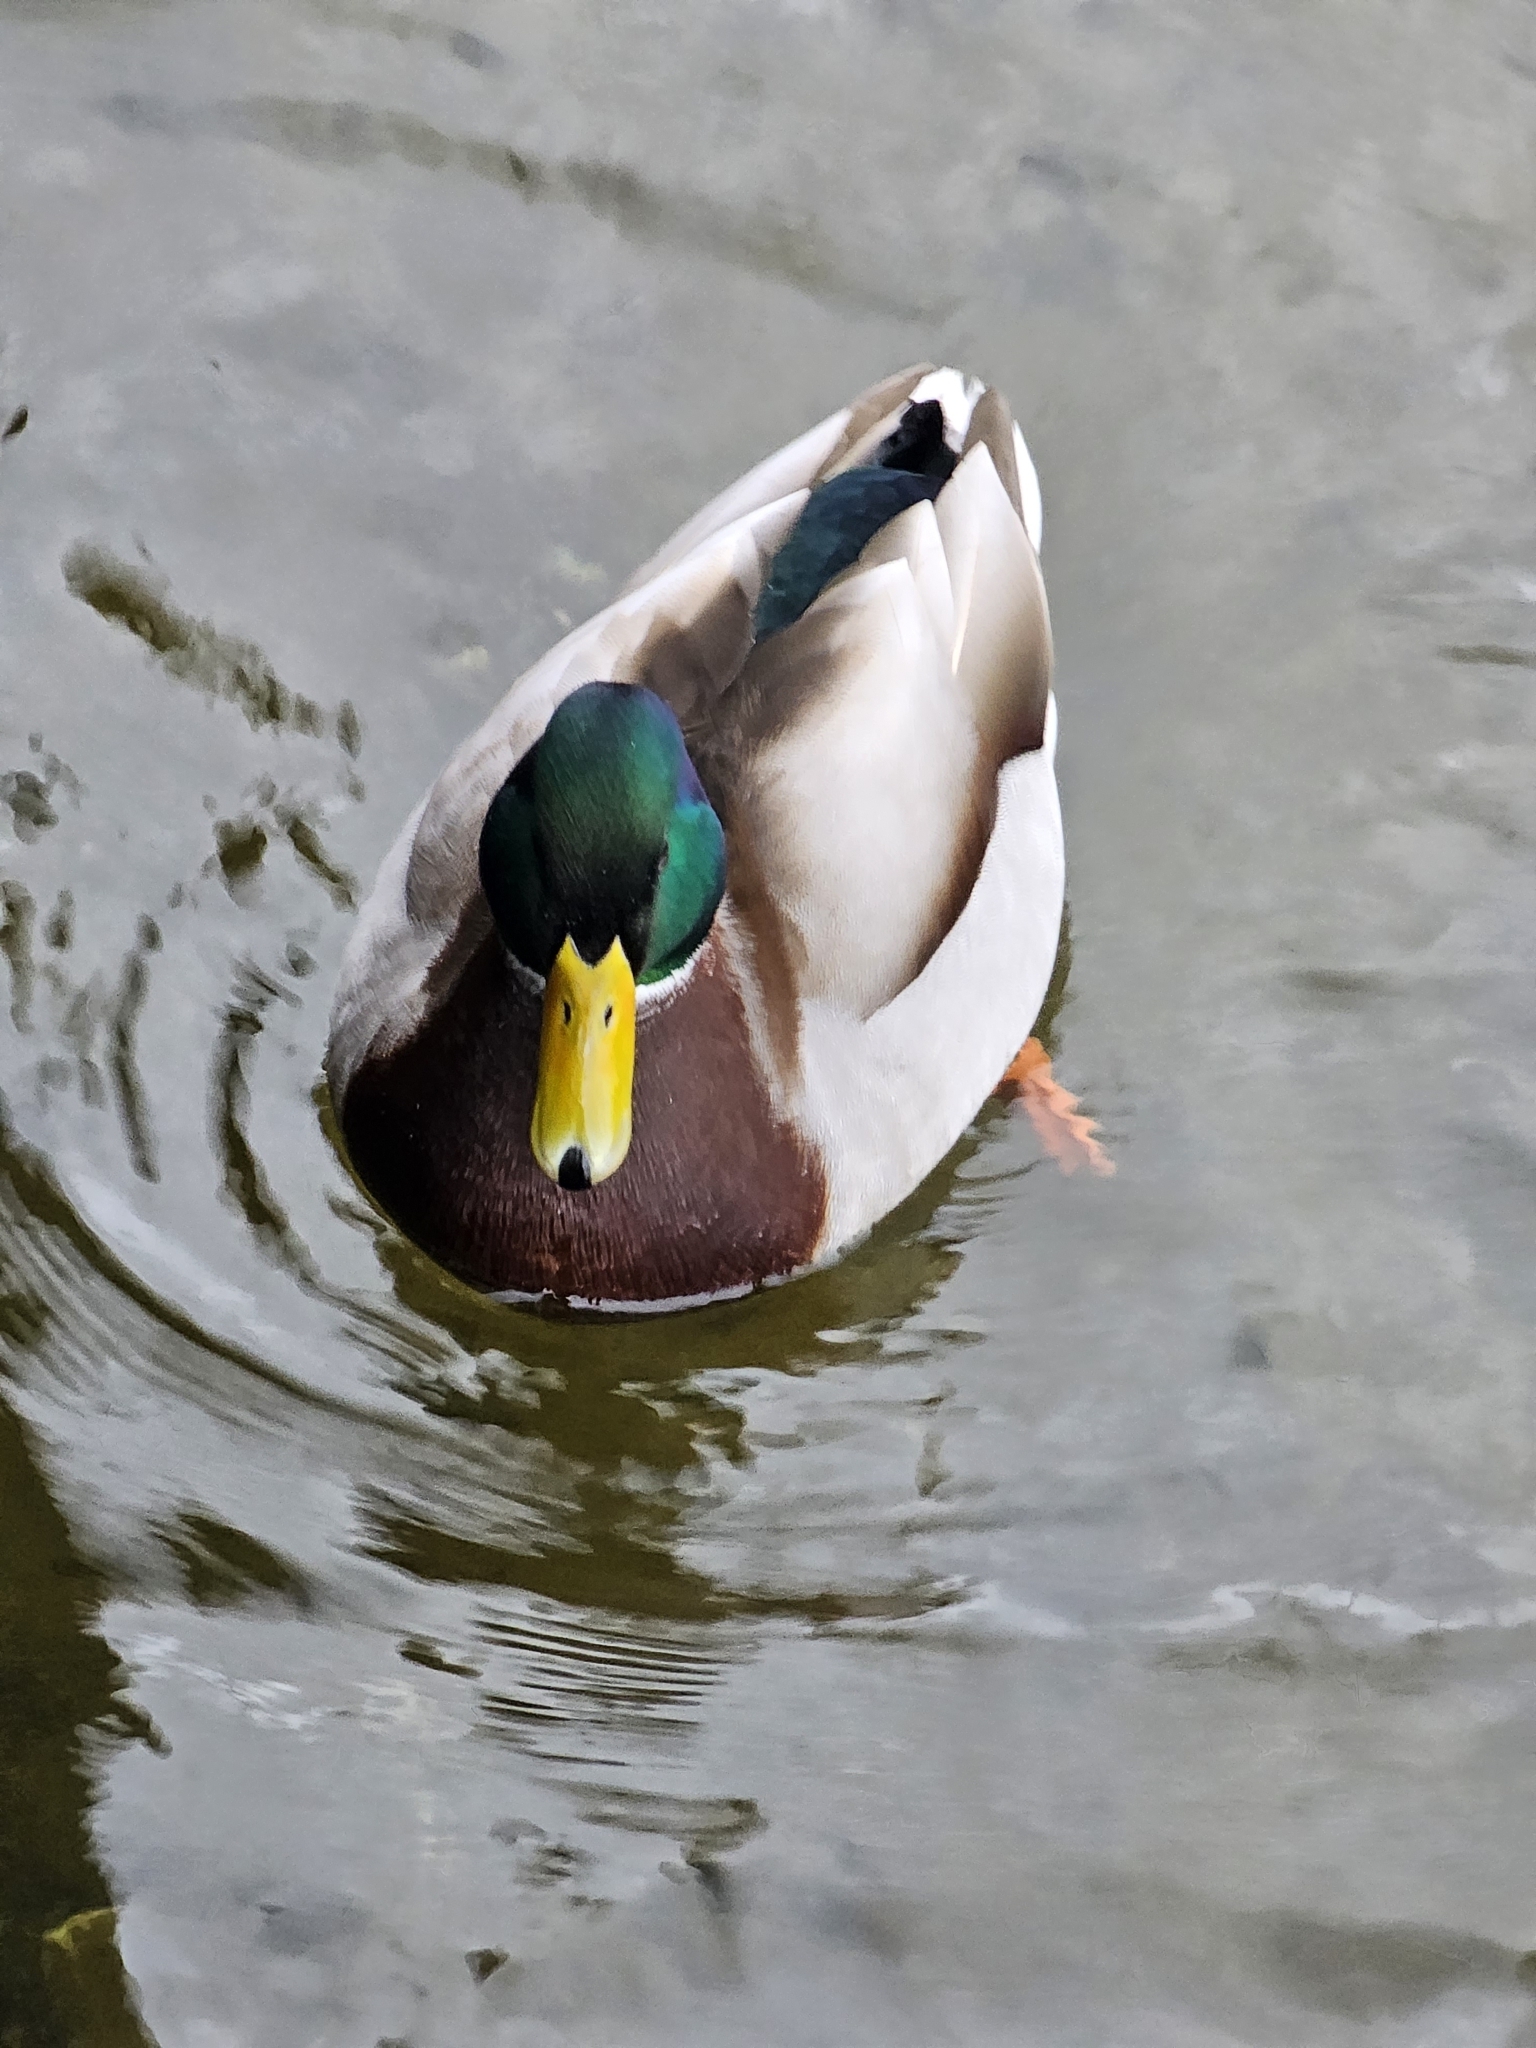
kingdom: Animalia
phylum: Chordata
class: Aves
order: Anseriformes
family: Anatidae
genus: Anas
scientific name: Anas platyrhynchos
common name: Mallard
